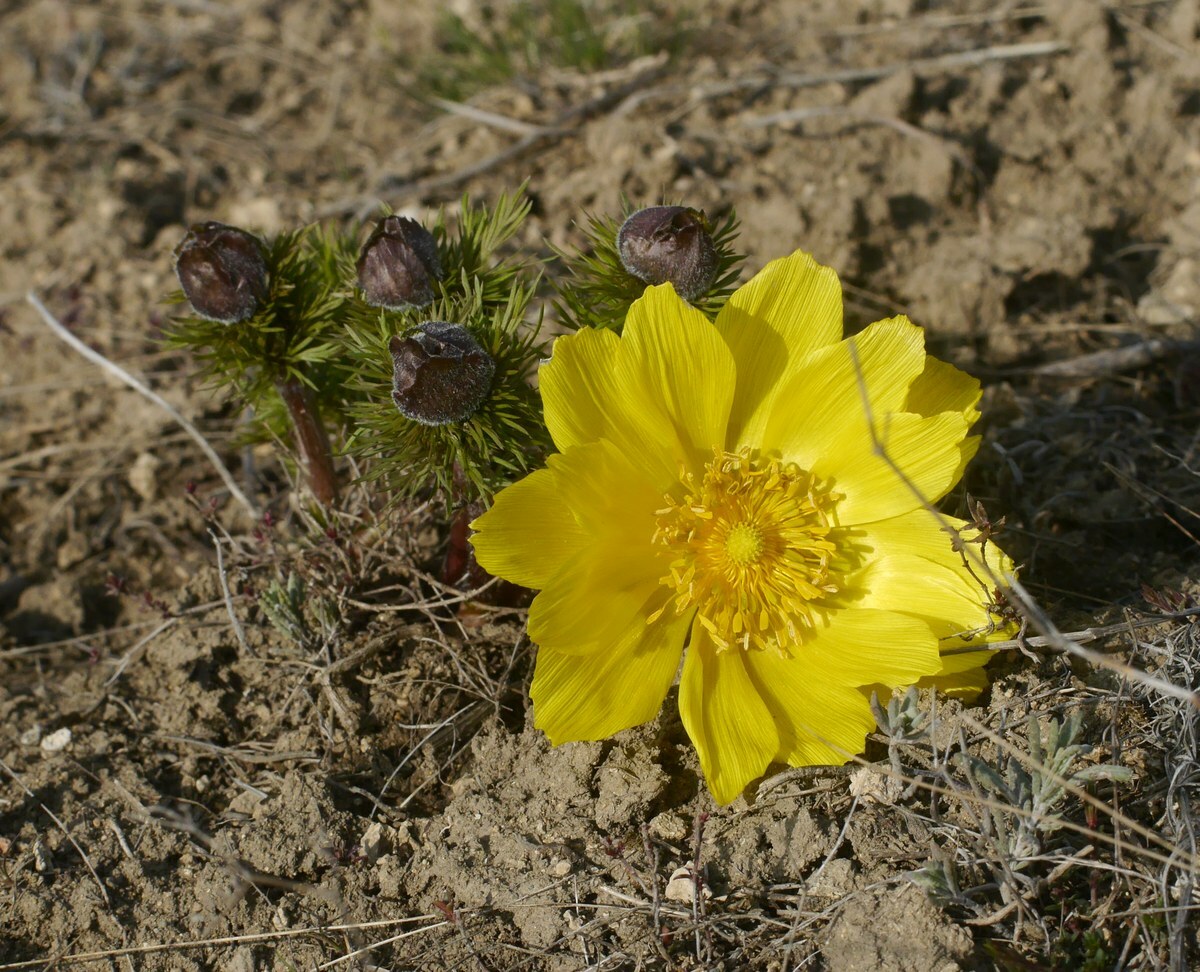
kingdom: Plantae
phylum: Tracheophyta
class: Magnoliopsida
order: Ranunculales
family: Ranunculaceae
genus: Adonis
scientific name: Adonis vernalis
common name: Yellow pheasants-eye
